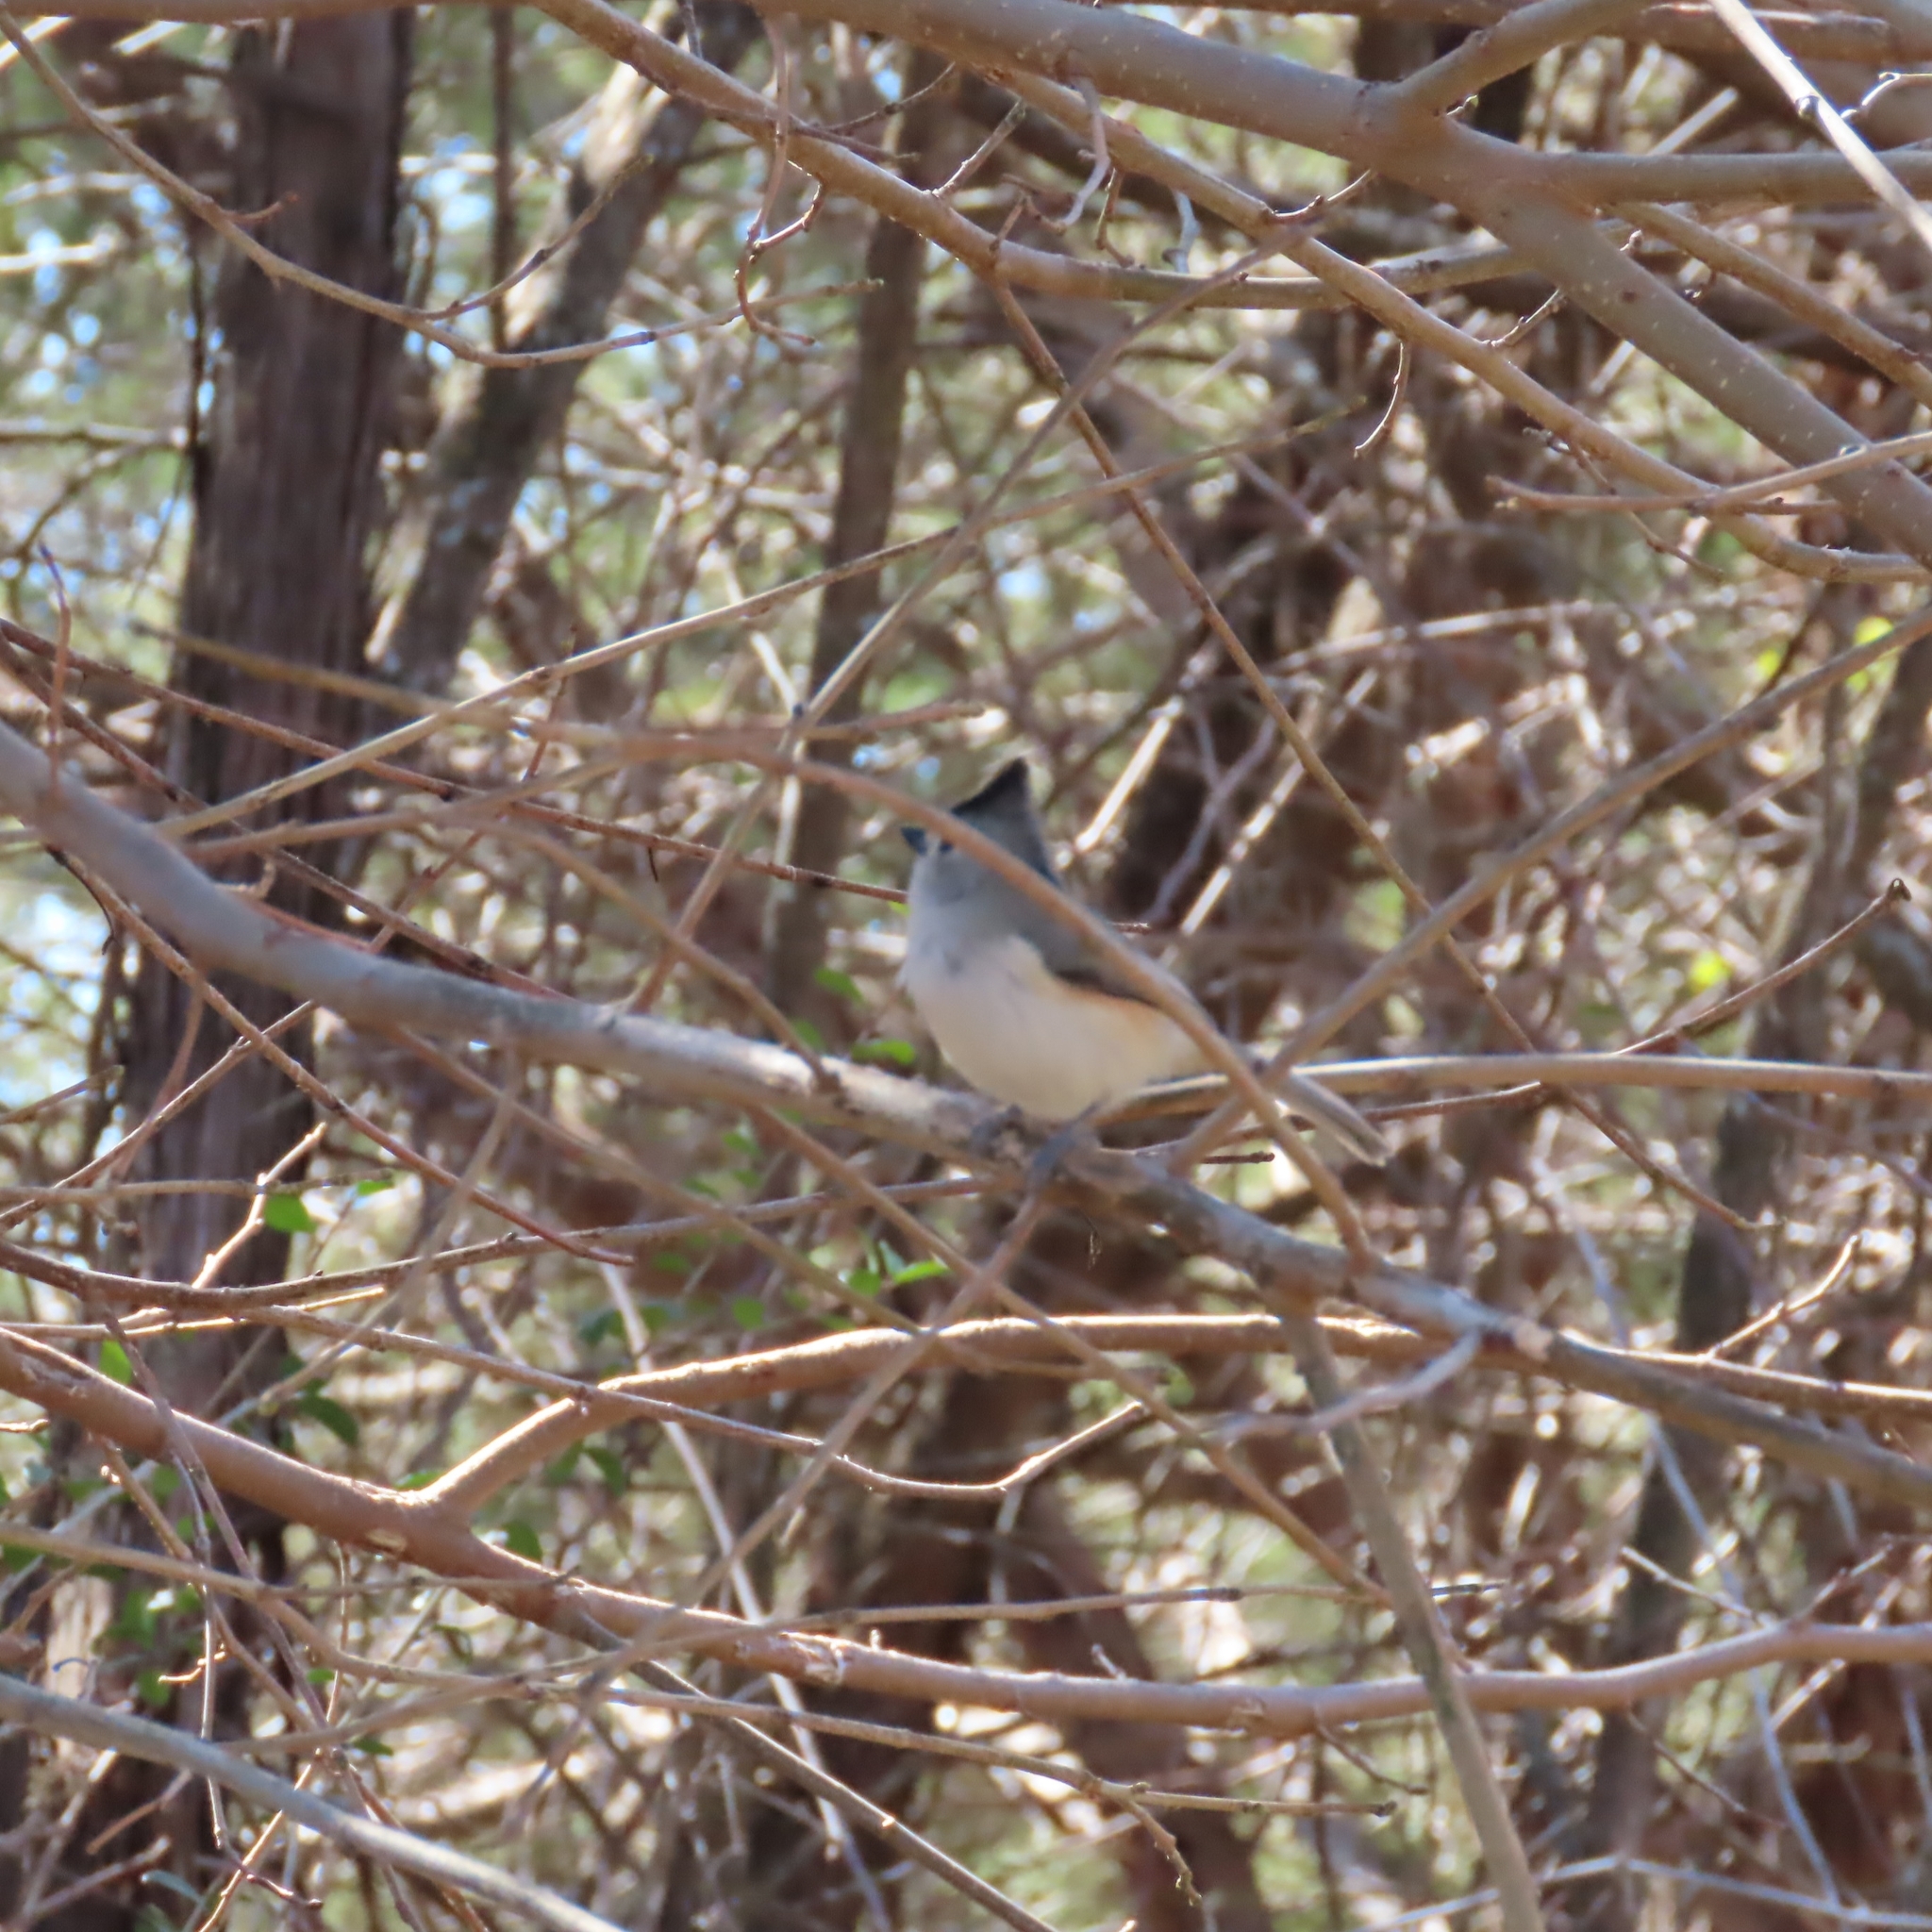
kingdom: Animalia
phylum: Chordata
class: Aves
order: Passeriformes
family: Paridae
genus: Baeolophus
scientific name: Baeolophus atricristatus
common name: Black-crested titmouse
